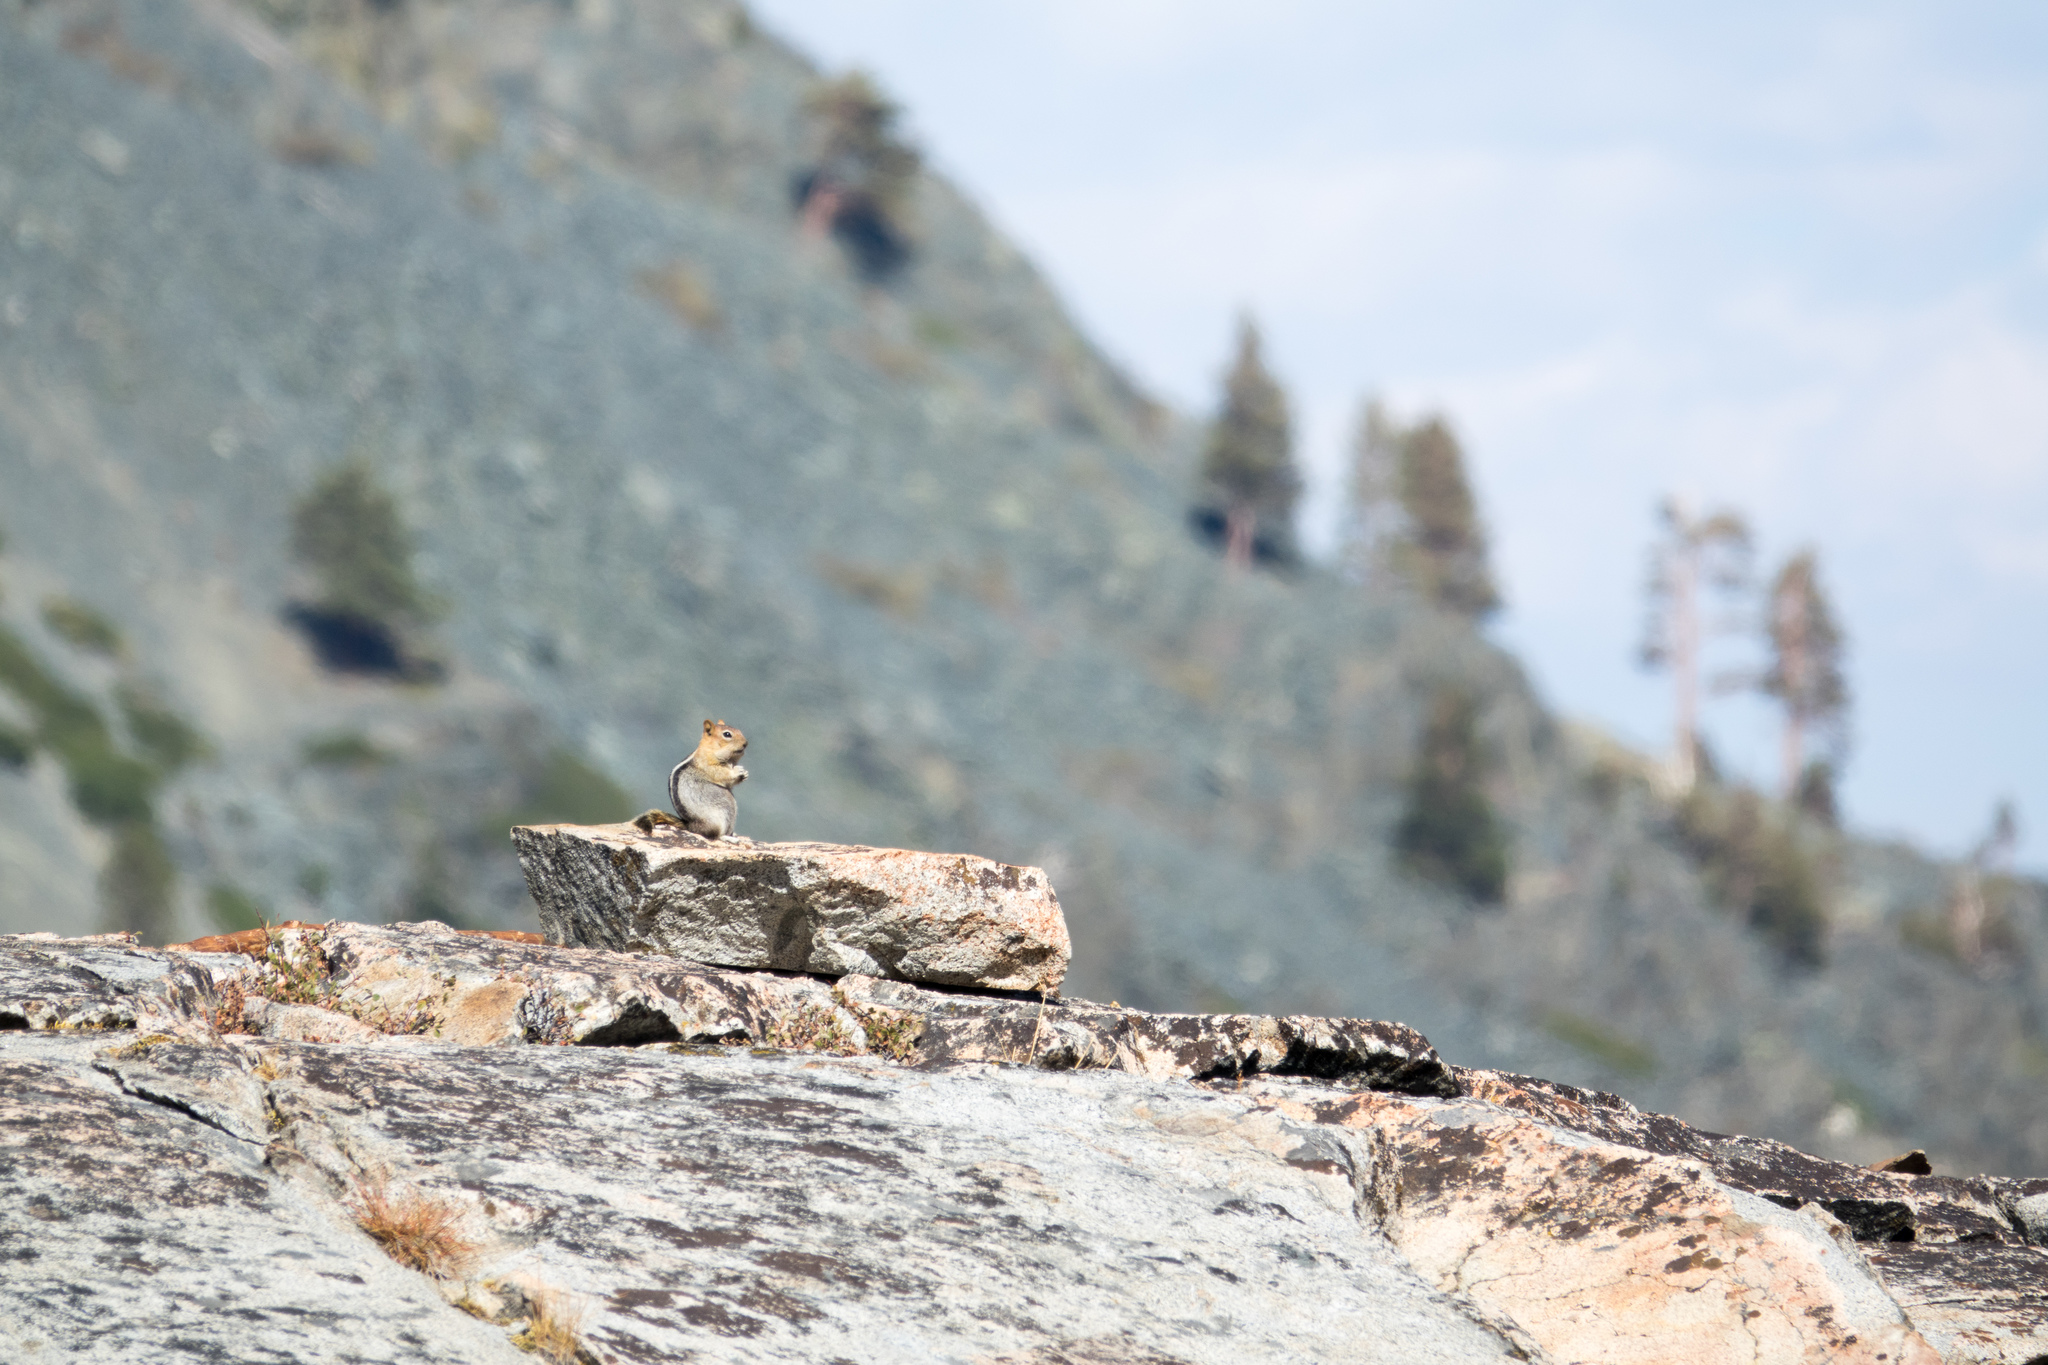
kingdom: Animalia
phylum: Chordata
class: Mammalia
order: Rodentia
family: Sciuridae
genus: Callospermophilus
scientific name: Callospermophilus lateralis
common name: Golden-mantled ground squirrel
